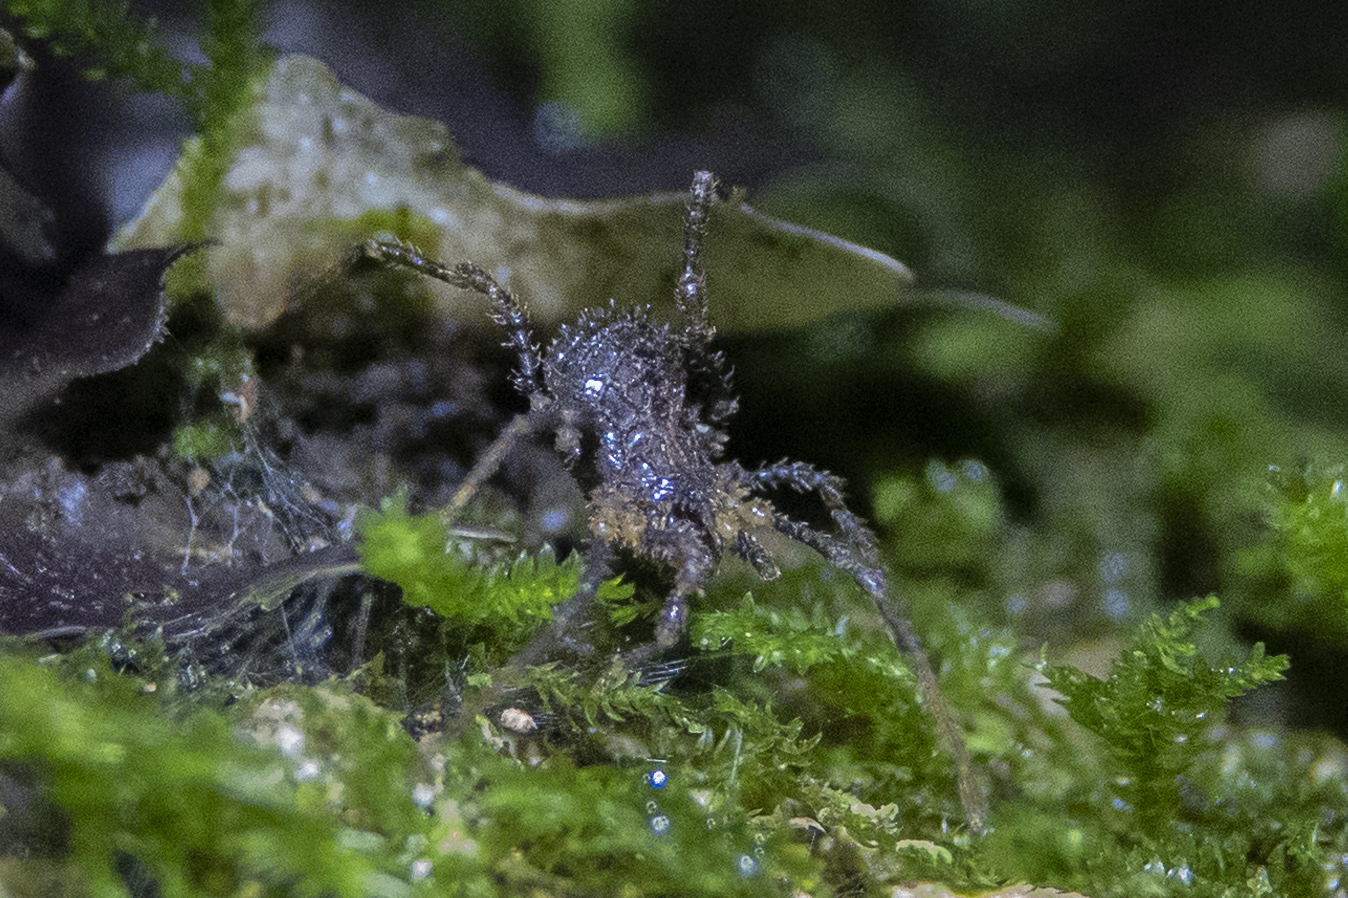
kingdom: Animalia
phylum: Arthropoda
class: Arachnida
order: Opiliones
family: Triaenonychidae
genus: Pristobunus
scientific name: Pristobunus acuminatus
